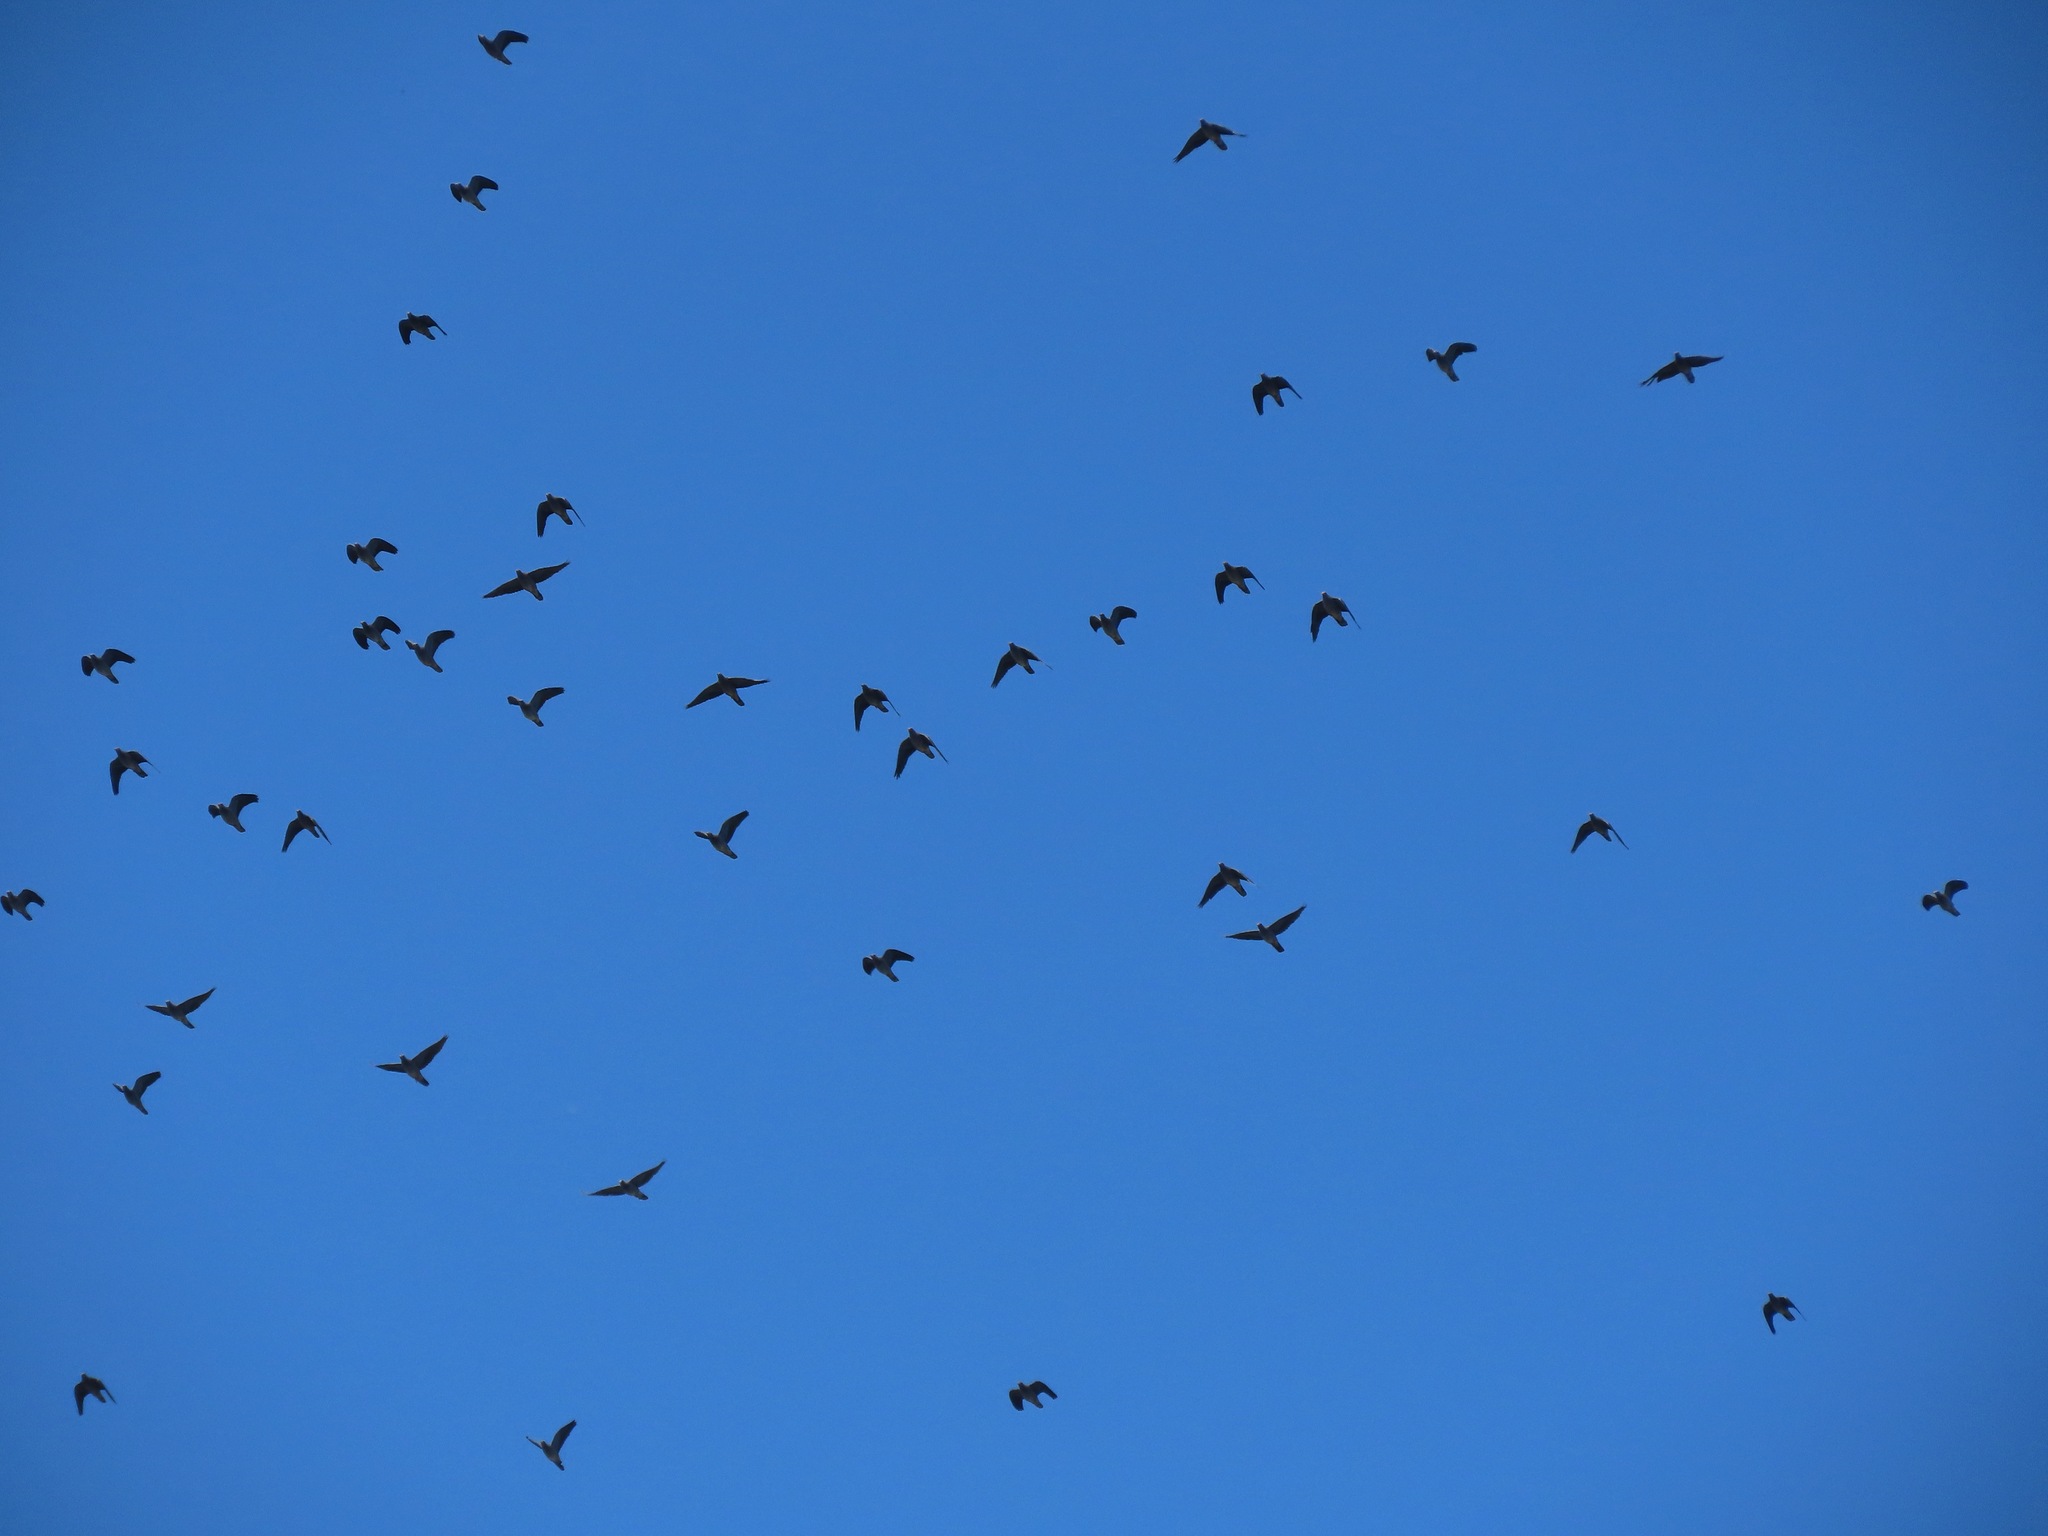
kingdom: Animalia
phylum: Chordata
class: Aves
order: Columbiformes
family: Columbidae
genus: Patagioenas
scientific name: Patagioenas fasciata
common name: Band-tailed pigeon
